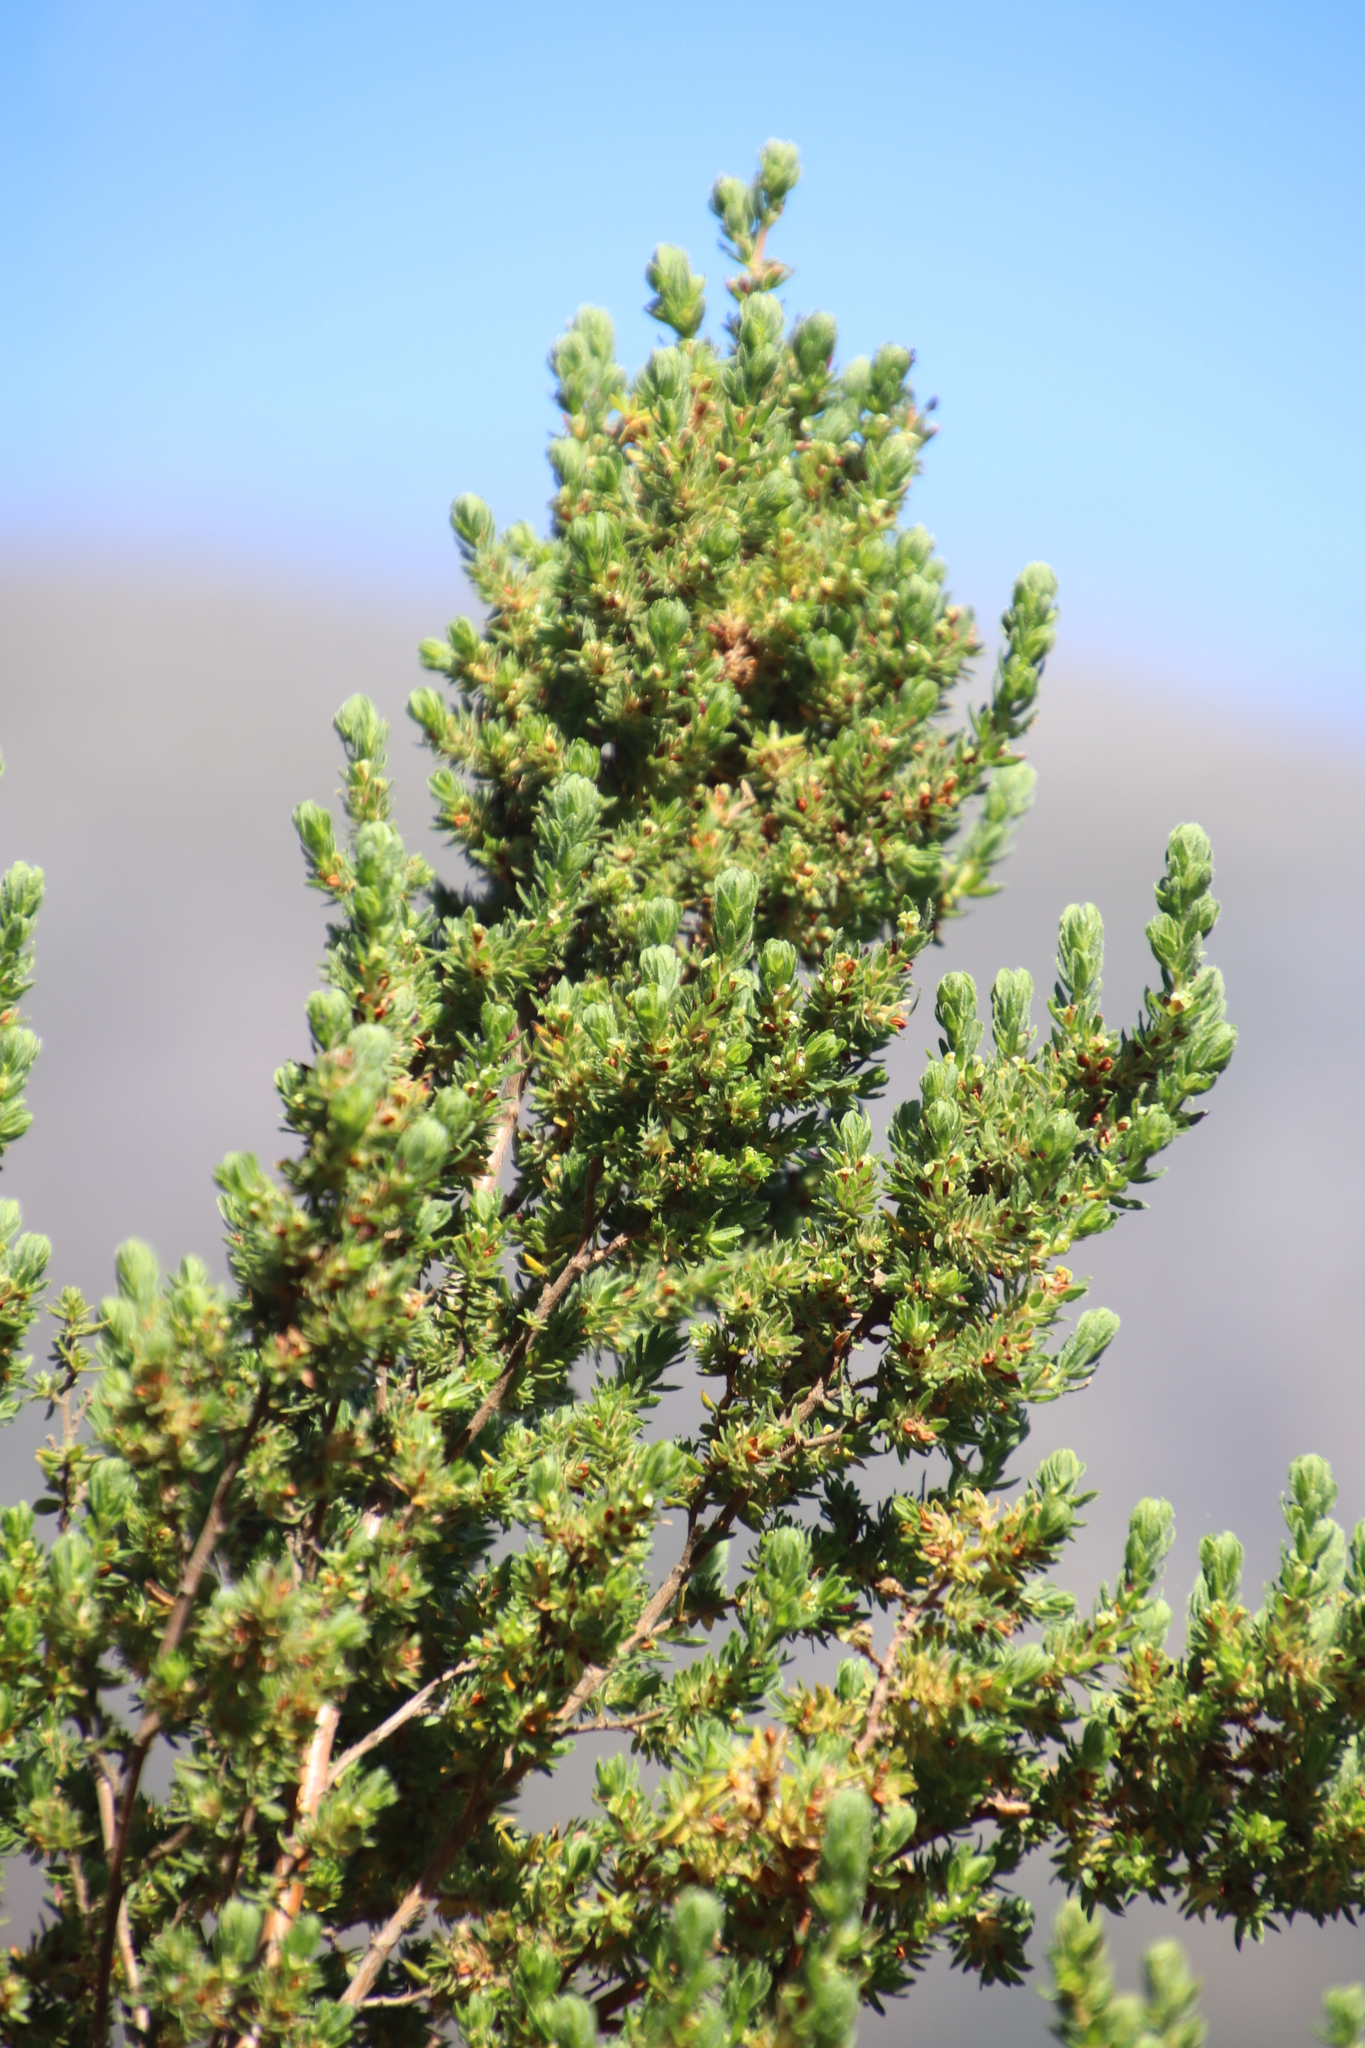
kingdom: Plantae
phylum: Tracheophyta
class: Magnoliopsida
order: Rosales
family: Rosaceae
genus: Cliffortia
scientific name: Cliffortia polygonifolia
